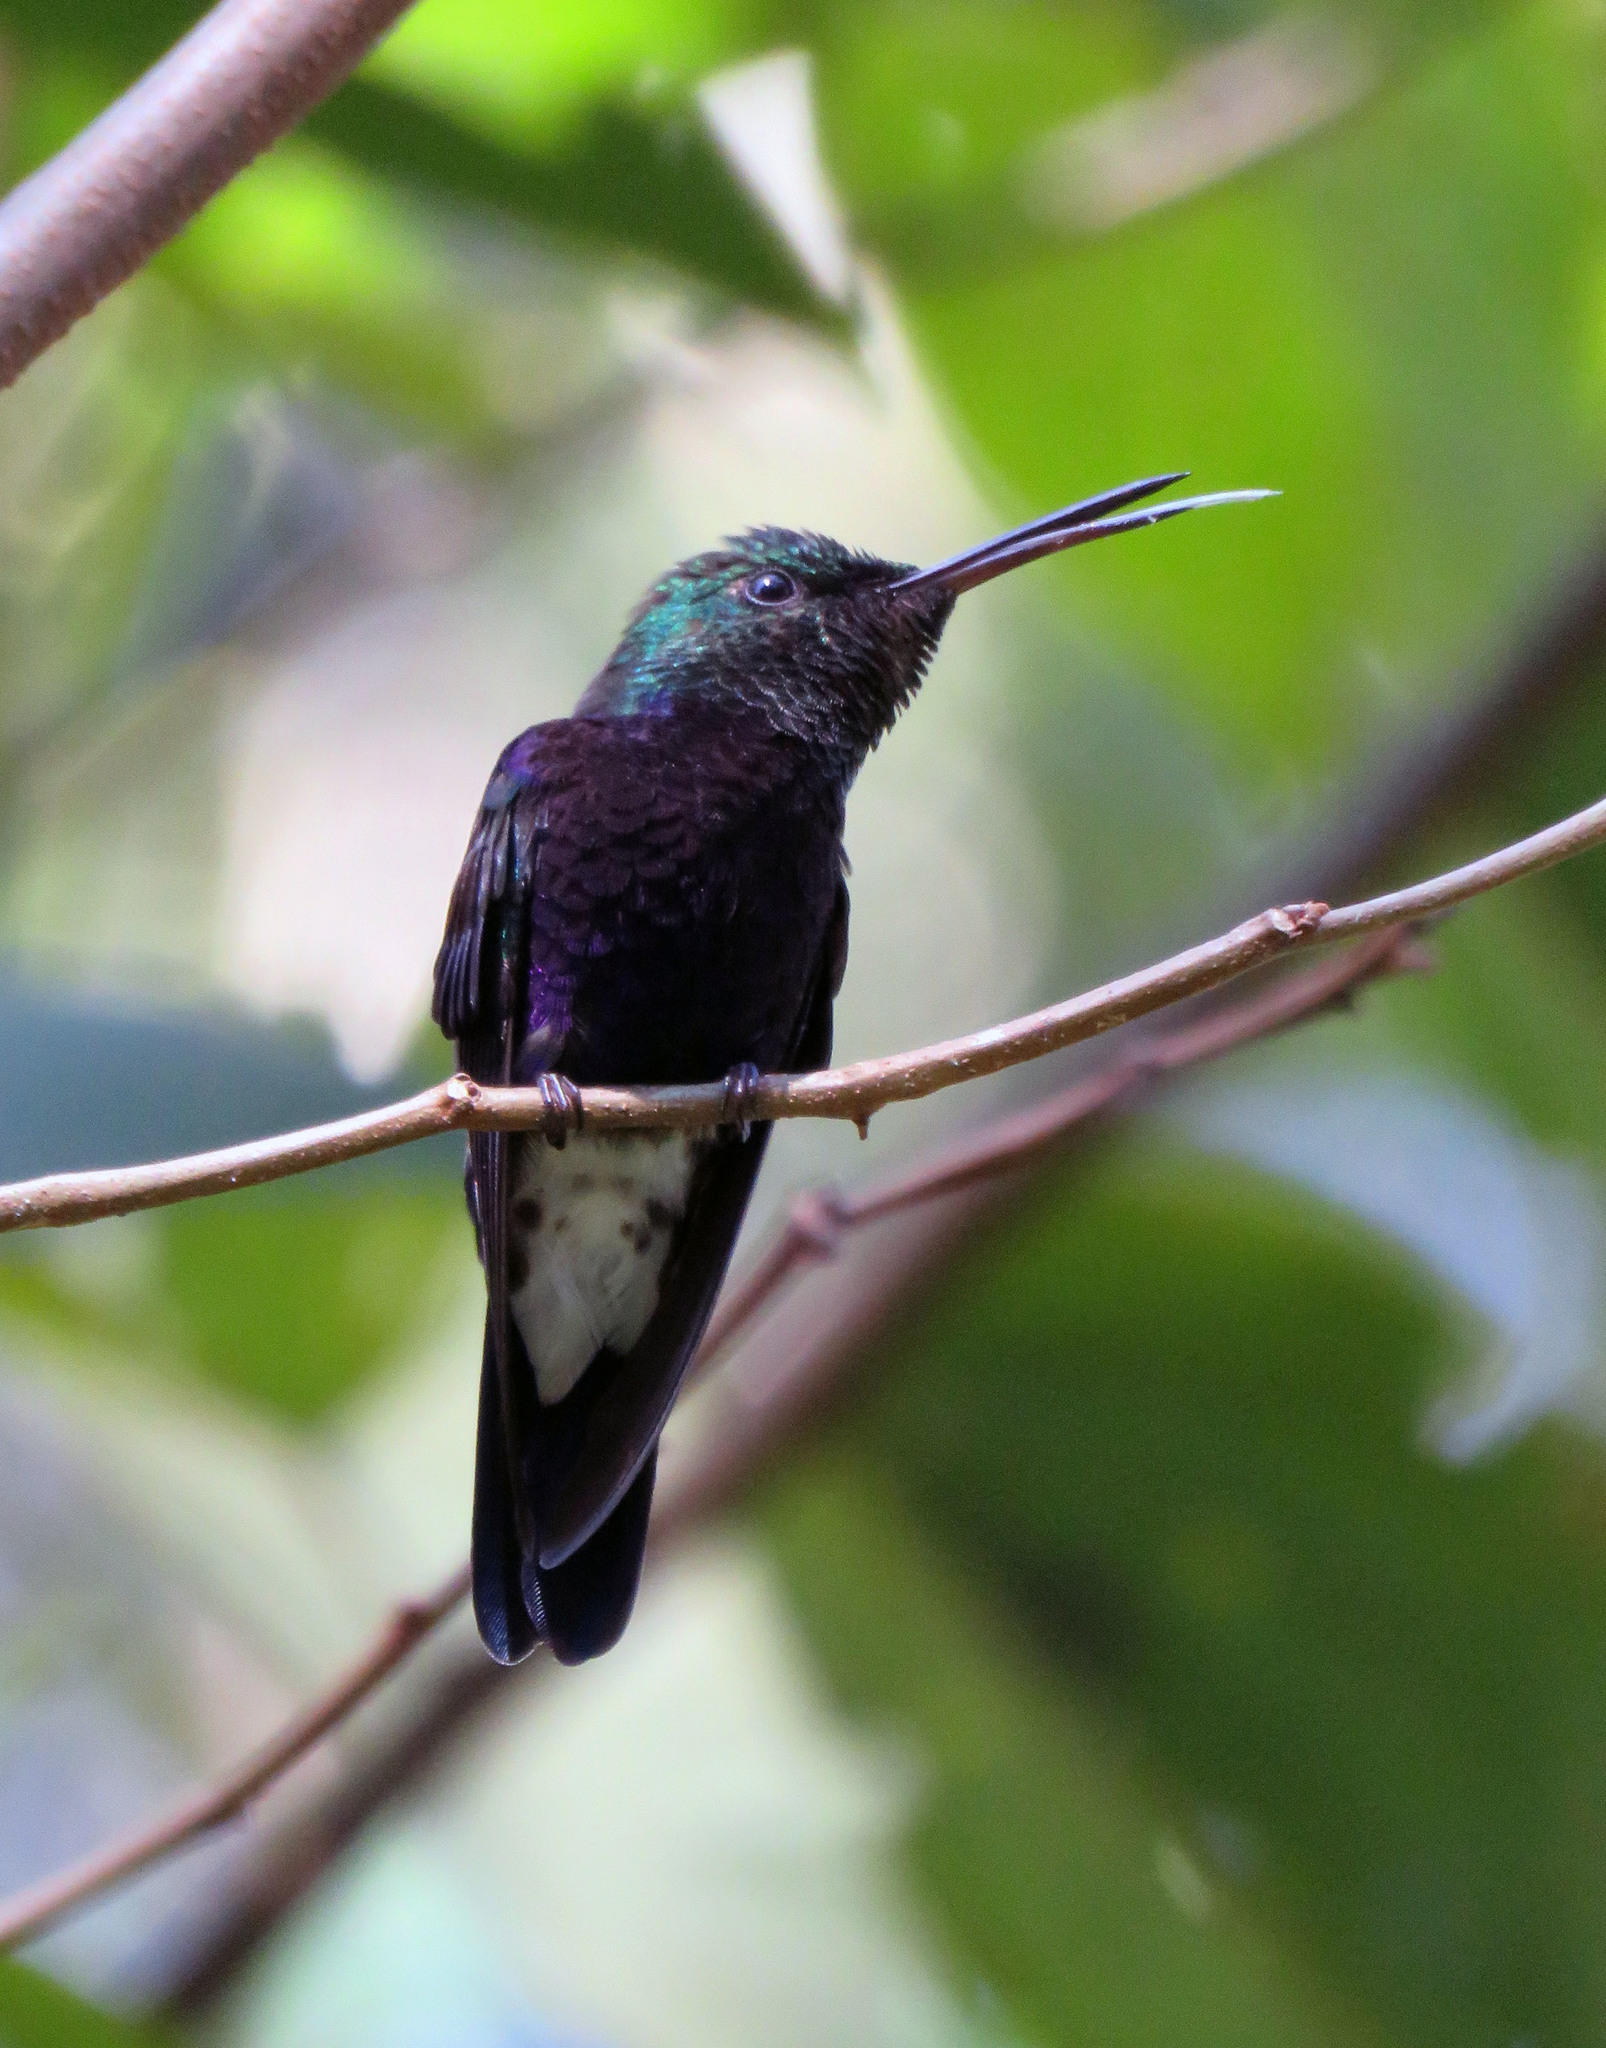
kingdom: Animalia
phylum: Chordata
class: Aves
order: Apodiformes
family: Trochilidae
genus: Thalurania
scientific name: Thalurania furcata
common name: Fork-tailed woodnymph
